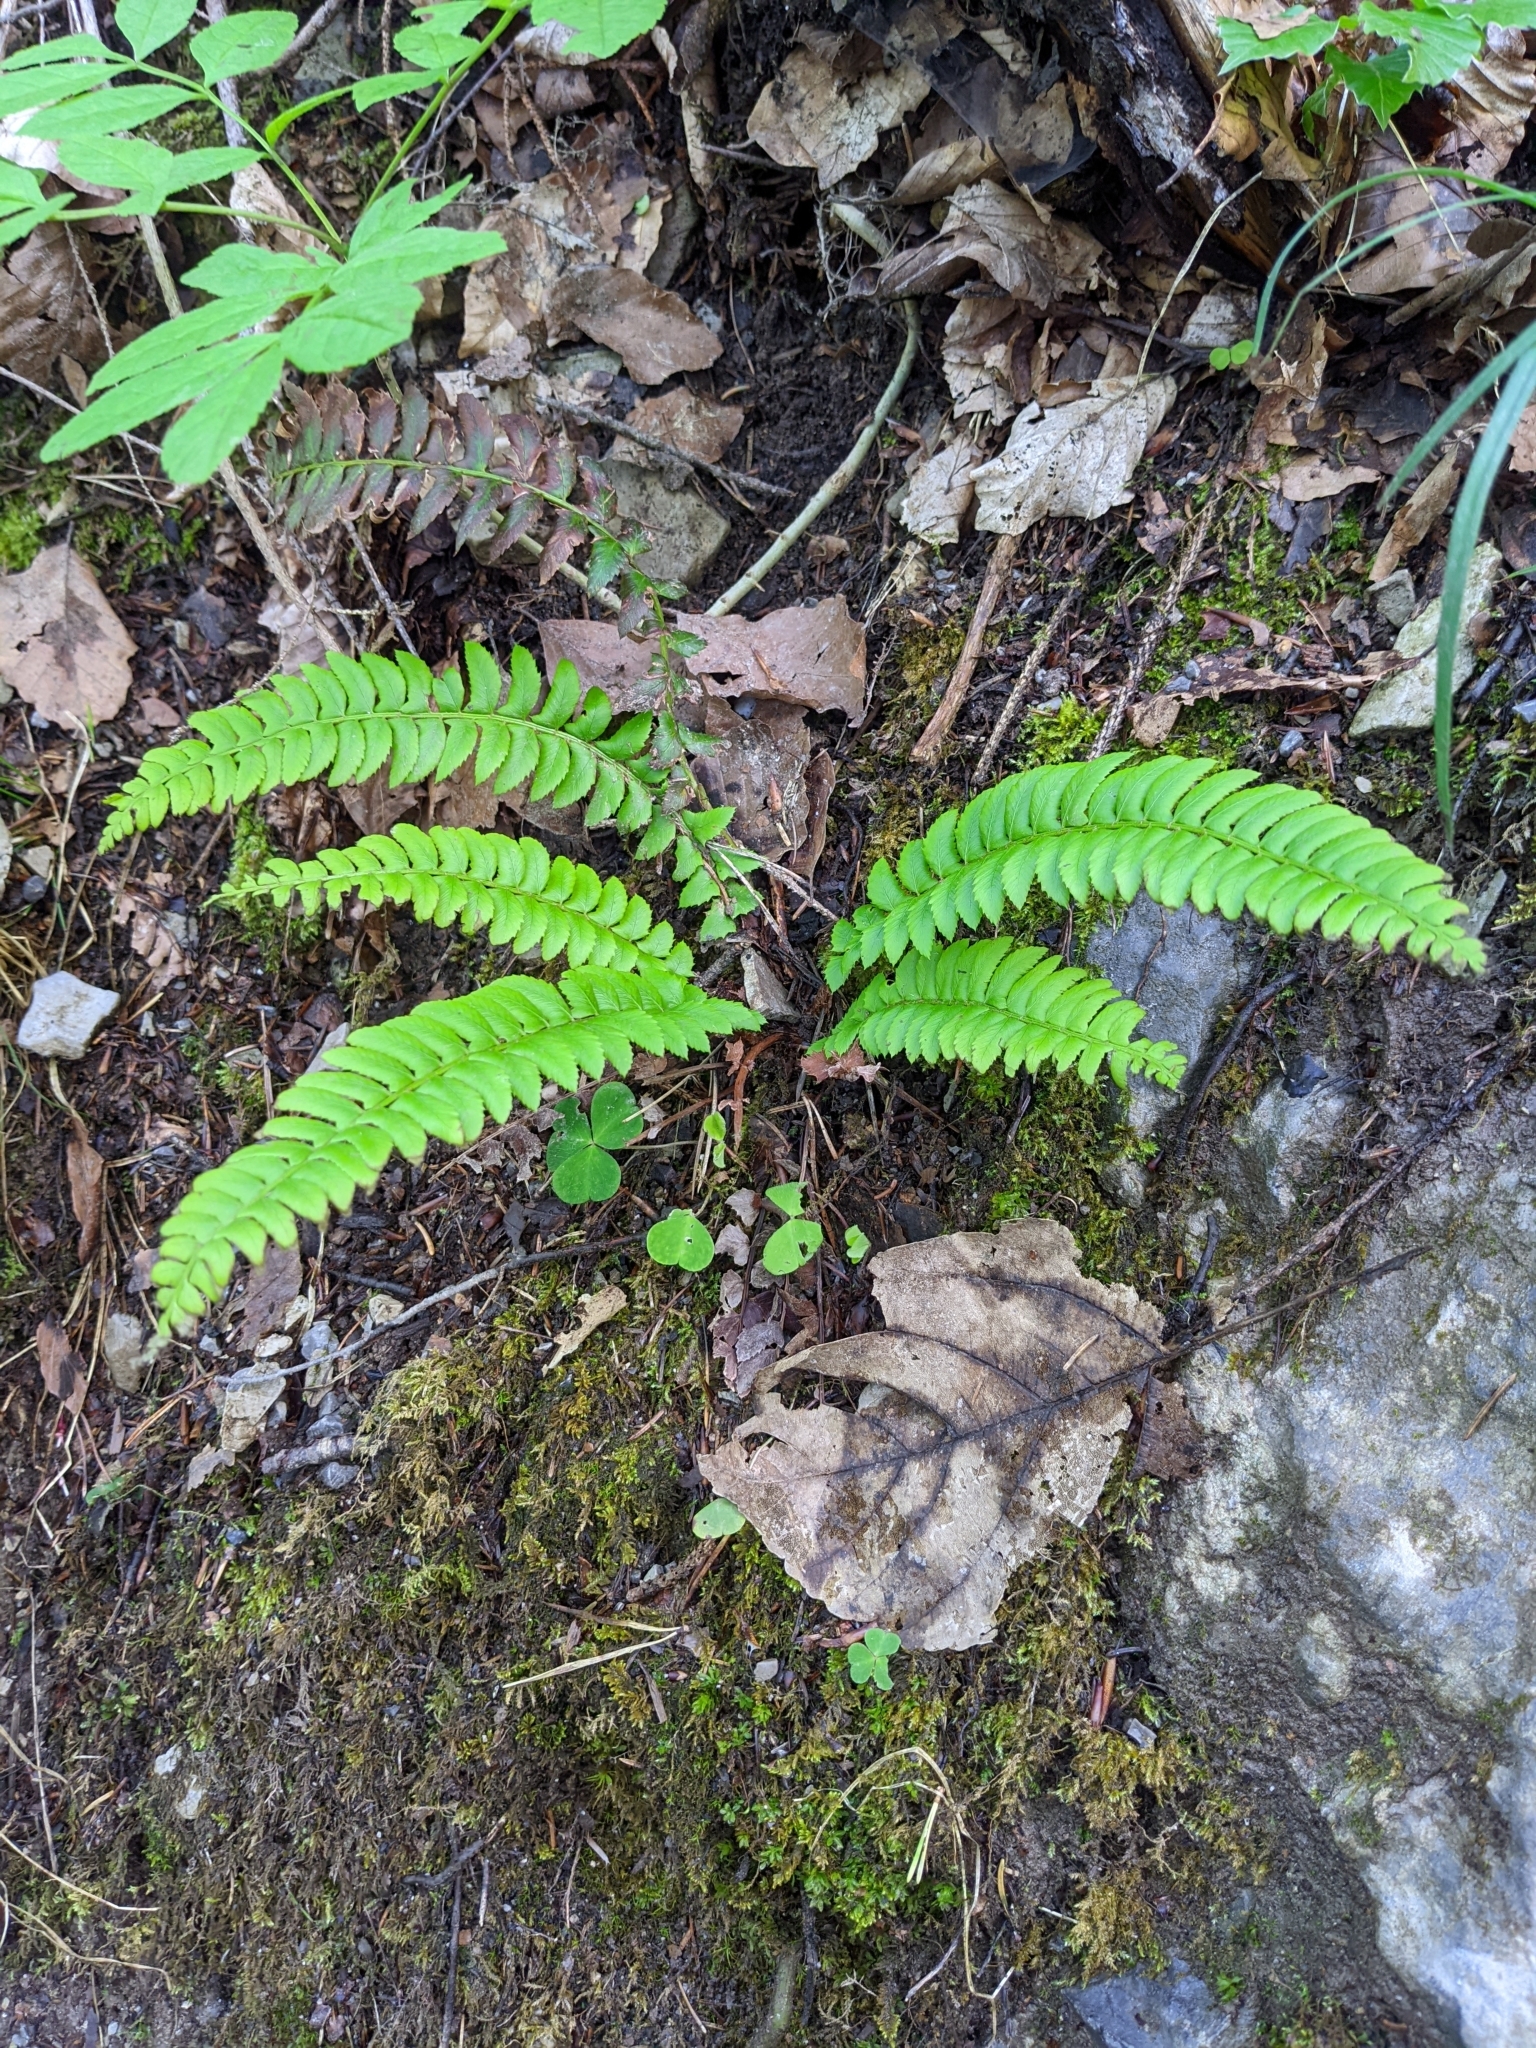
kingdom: Plantae
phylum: Tracheophyta
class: Polypodiopsida
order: Polypodiales
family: Dryopteridaceae
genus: Polystichum
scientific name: Polystichum lonchitis
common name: Holly fern
